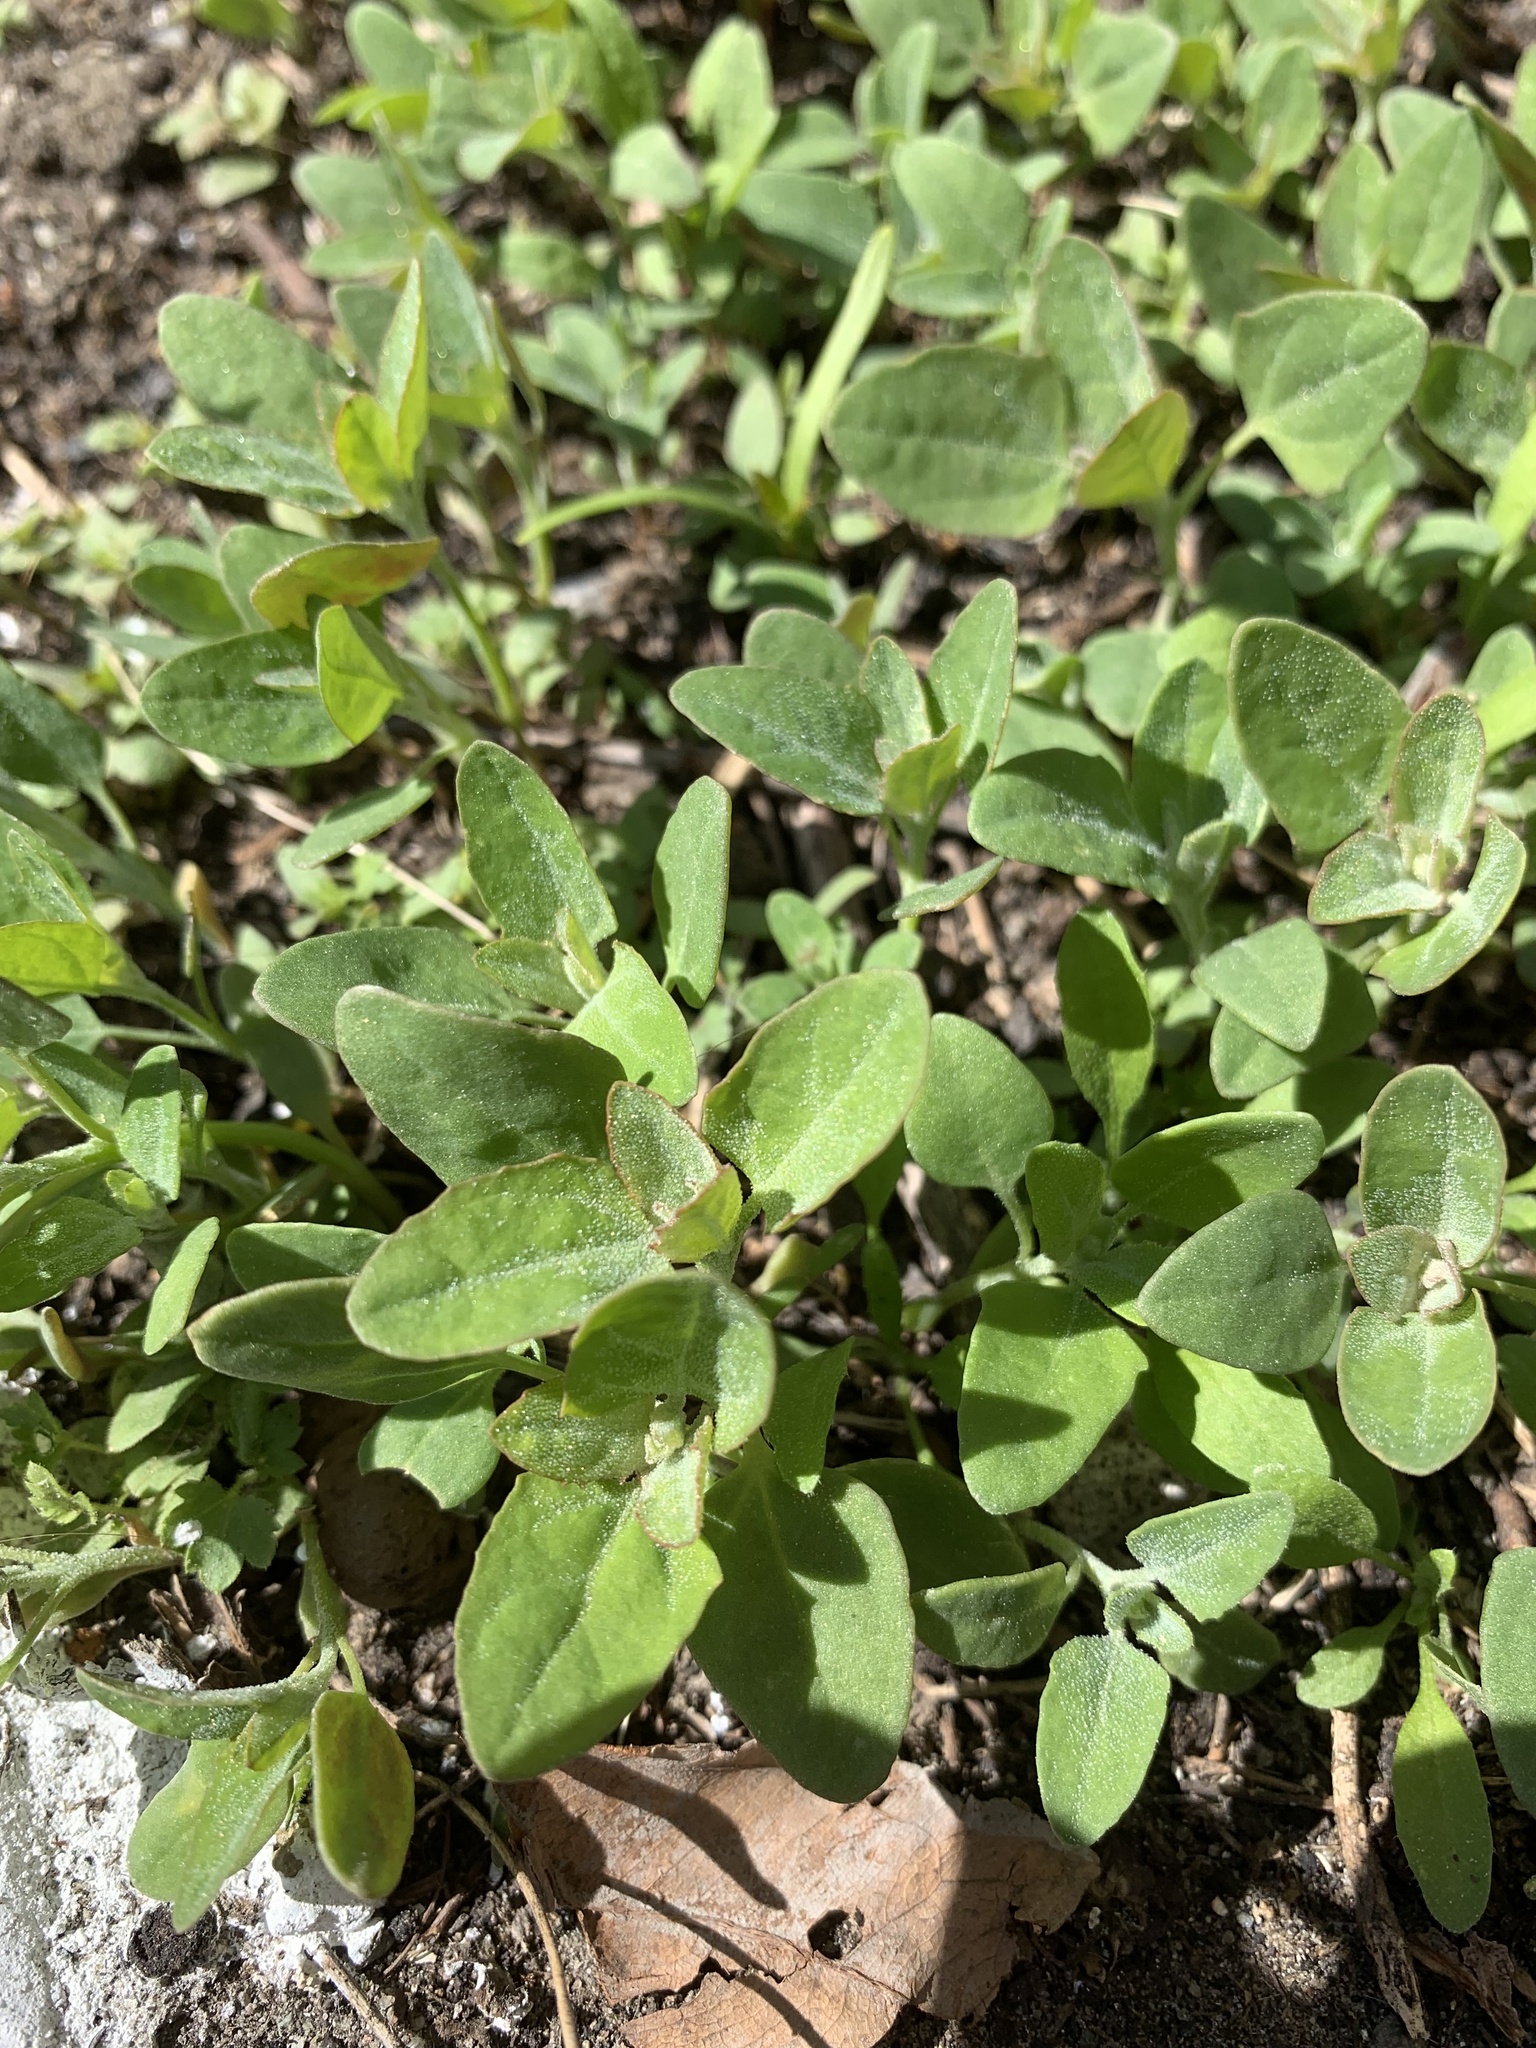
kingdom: Plantae
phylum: Tracheophyta
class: Magnoliopsida
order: Caryophyllales
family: Amaranthaceae
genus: Chenopodium
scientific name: Chenopodium album
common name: Fat-hen
